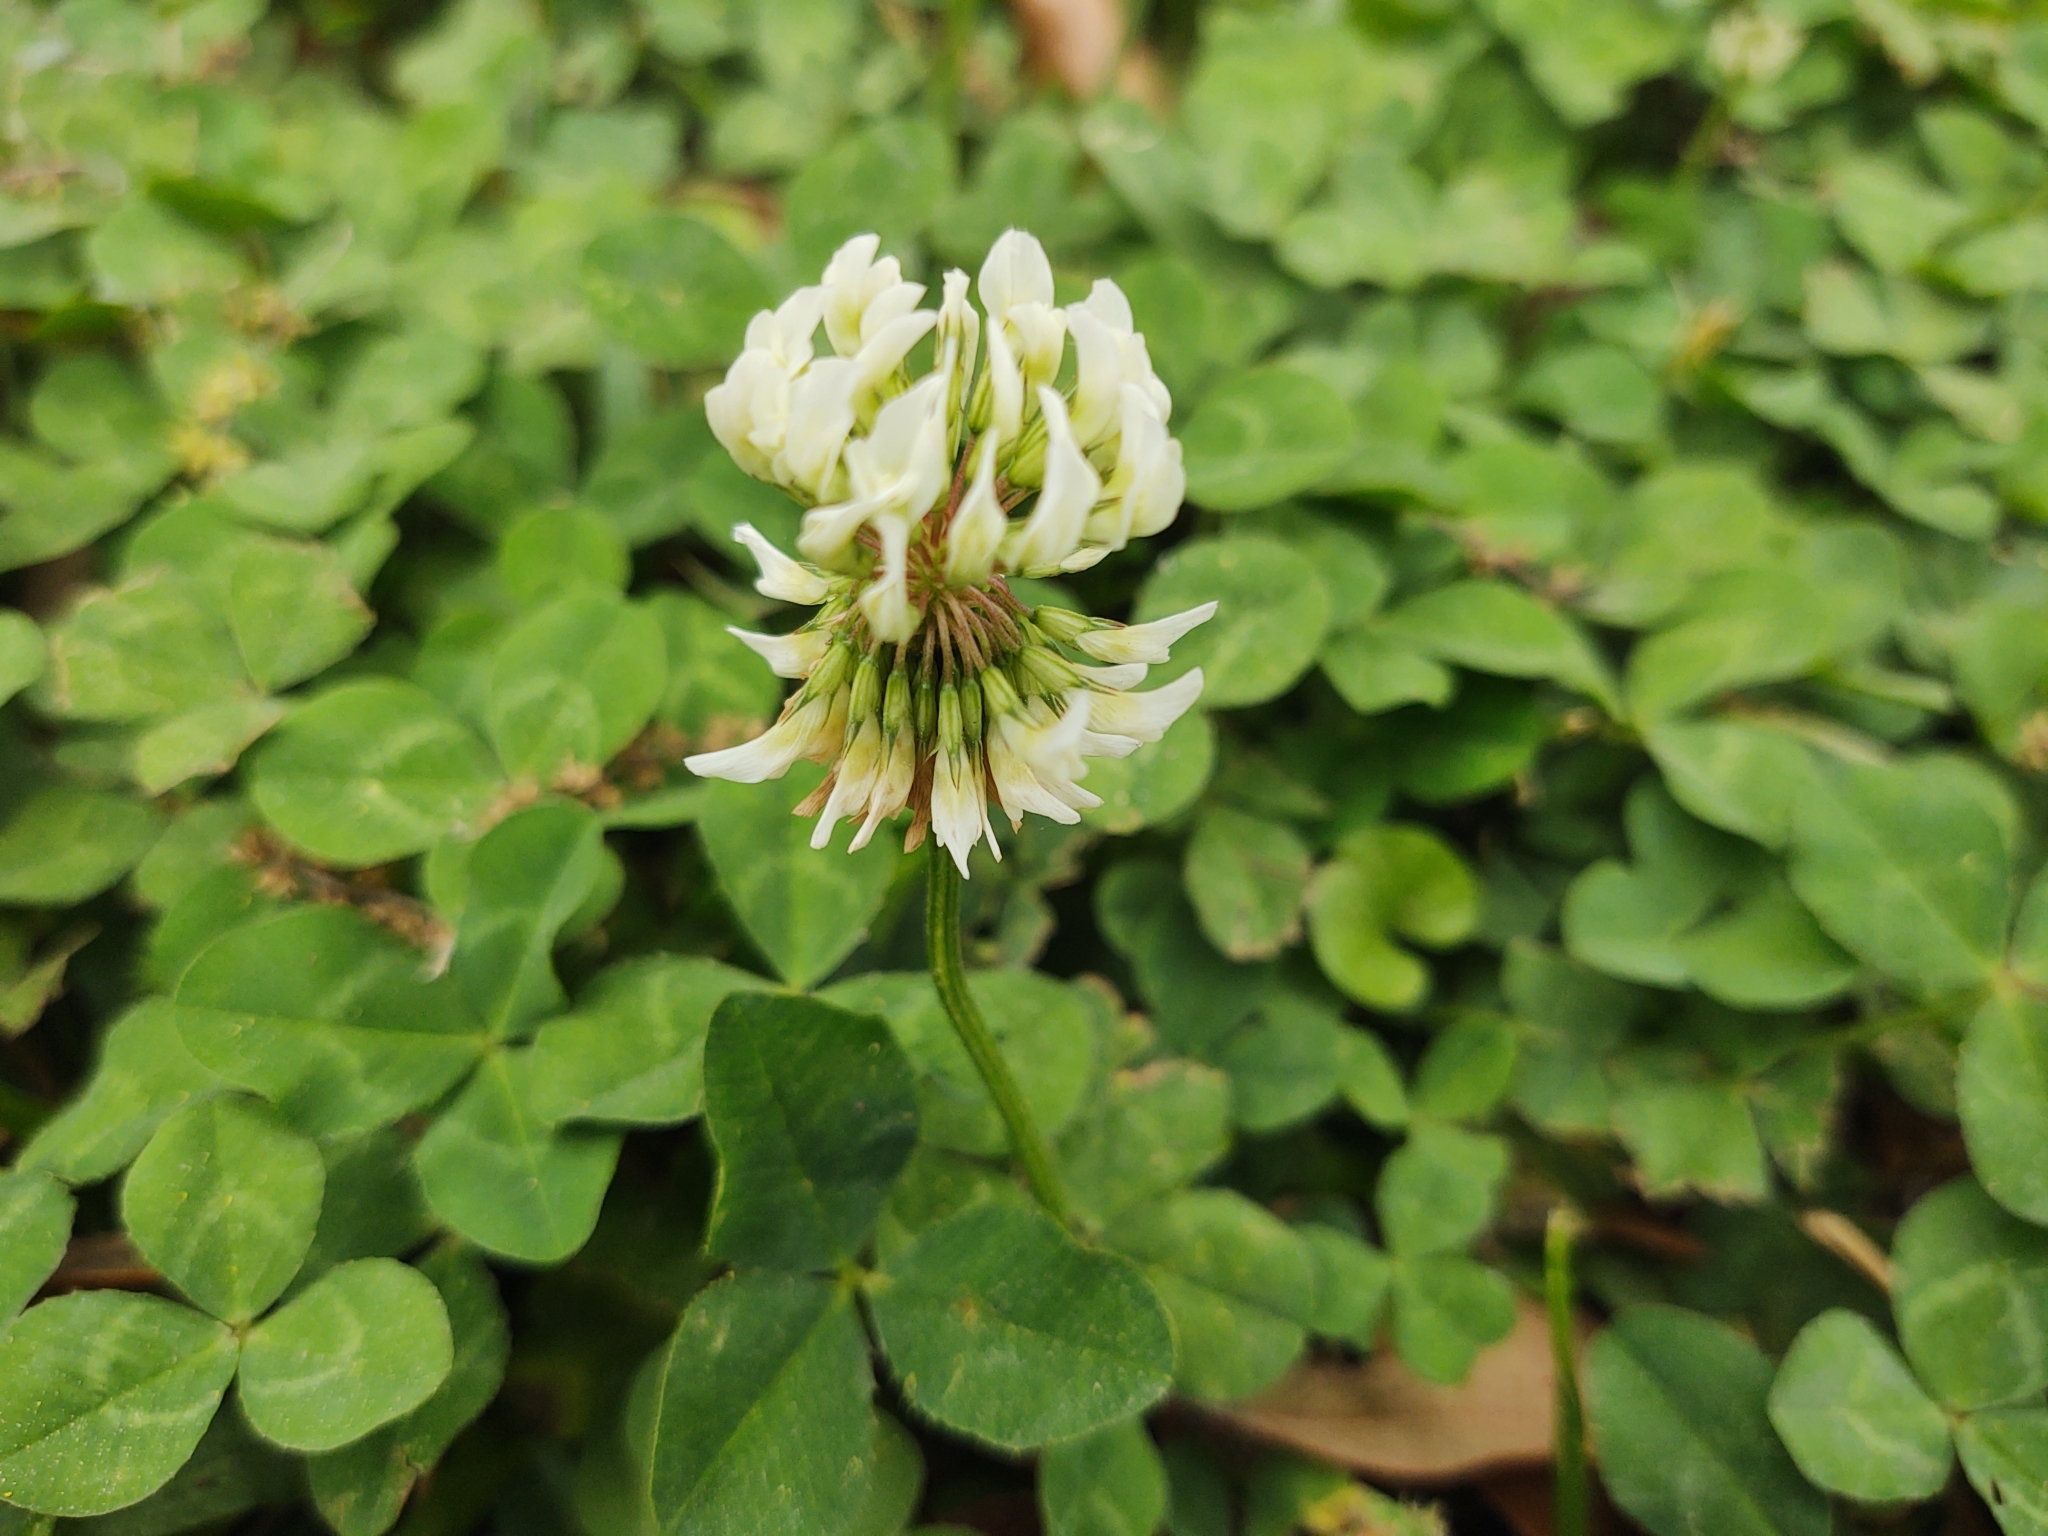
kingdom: Plantae
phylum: Tracheophyta
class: Magnoliopsida
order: Fabales
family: Fabaceae
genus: Trifolium
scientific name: Trifolium repens
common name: White clover
